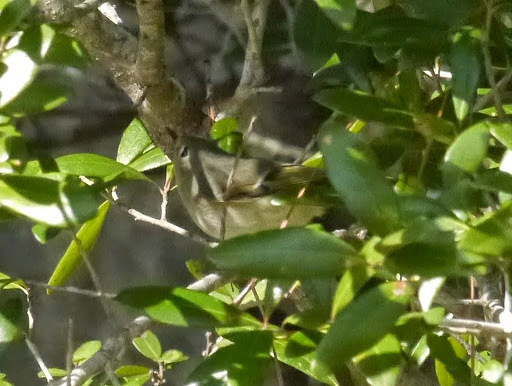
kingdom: Animalia
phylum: Chordata
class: Aves
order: Passeriformes
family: Regulidae
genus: Regulus
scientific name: Regulus calendula
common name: Ruby-crowned kinglet
